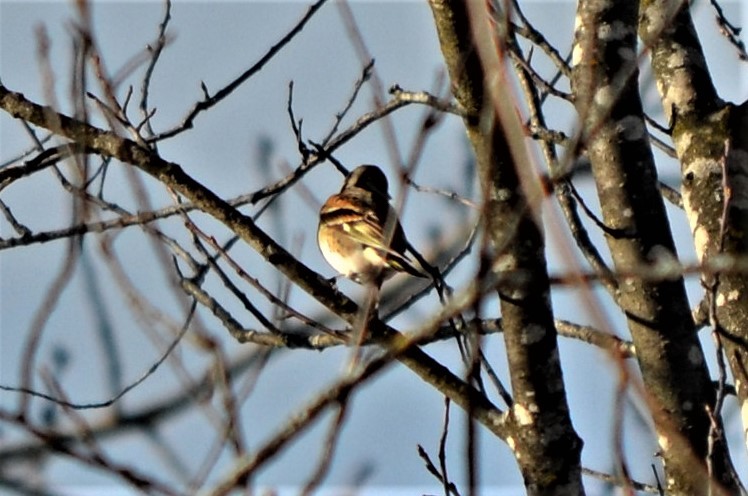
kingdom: Animalia
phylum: Chordata
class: Aves
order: Passeriformes
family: Fringillidae
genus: Fringilla
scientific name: Fringilla montifringilla
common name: Brambling
